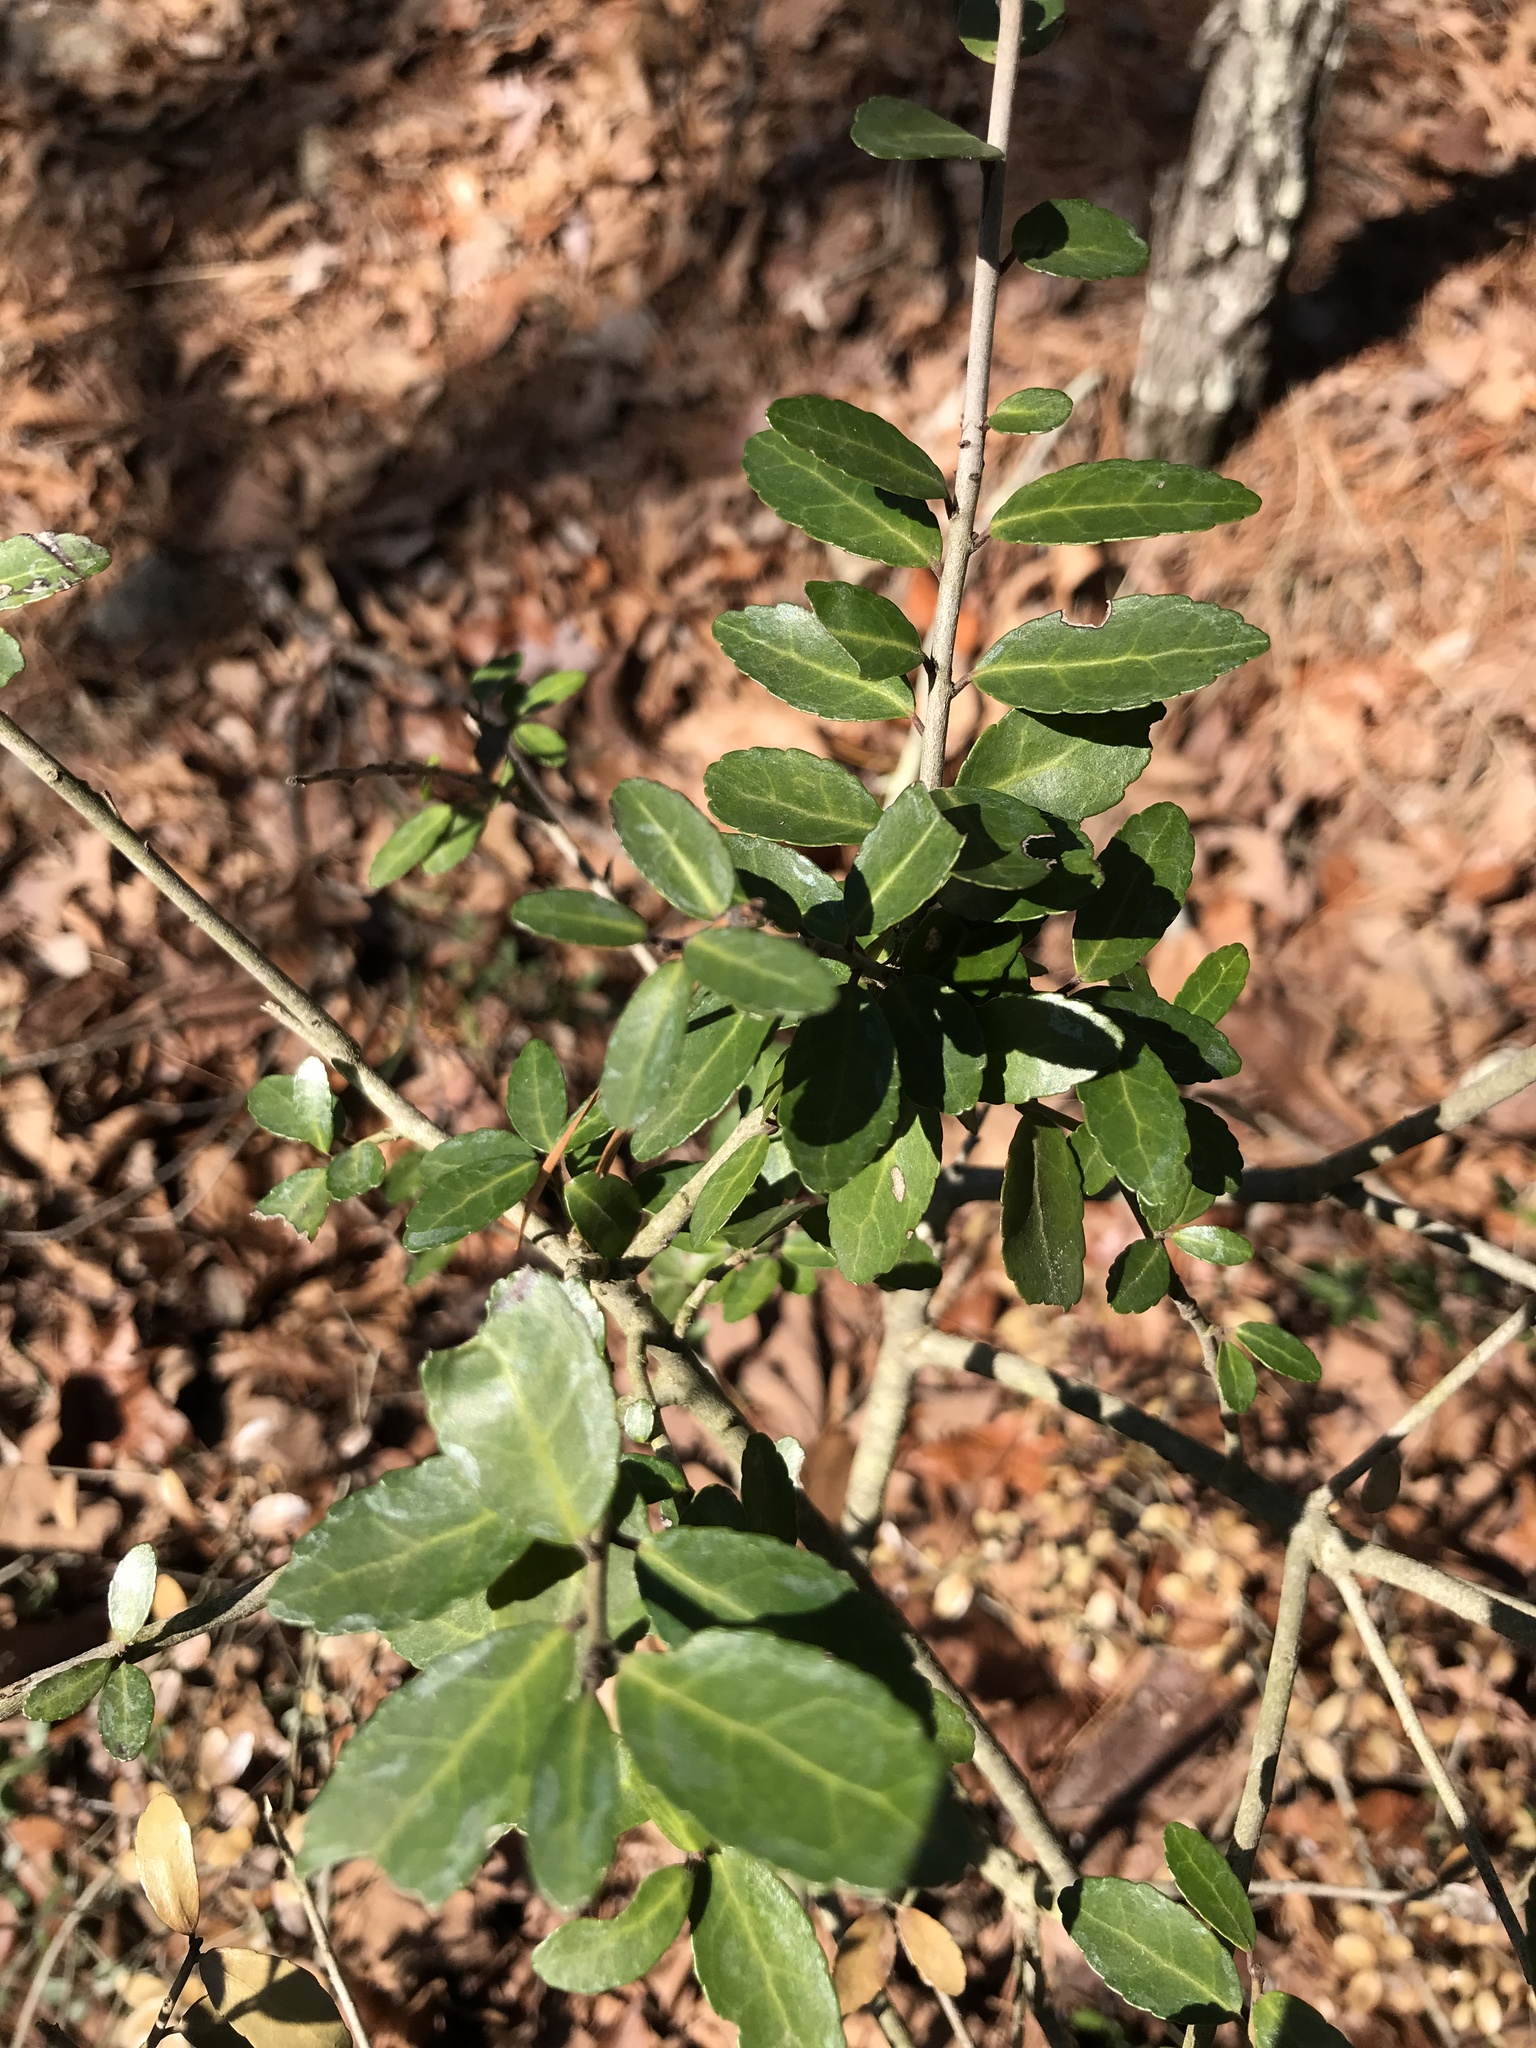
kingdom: Plantae
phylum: Tracheophyta
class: Magnoliopsida
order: Aquifoliales
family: Aquifoliaceae
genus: Ilex
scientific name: Ilex vomitoria
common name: Yaupon holly
